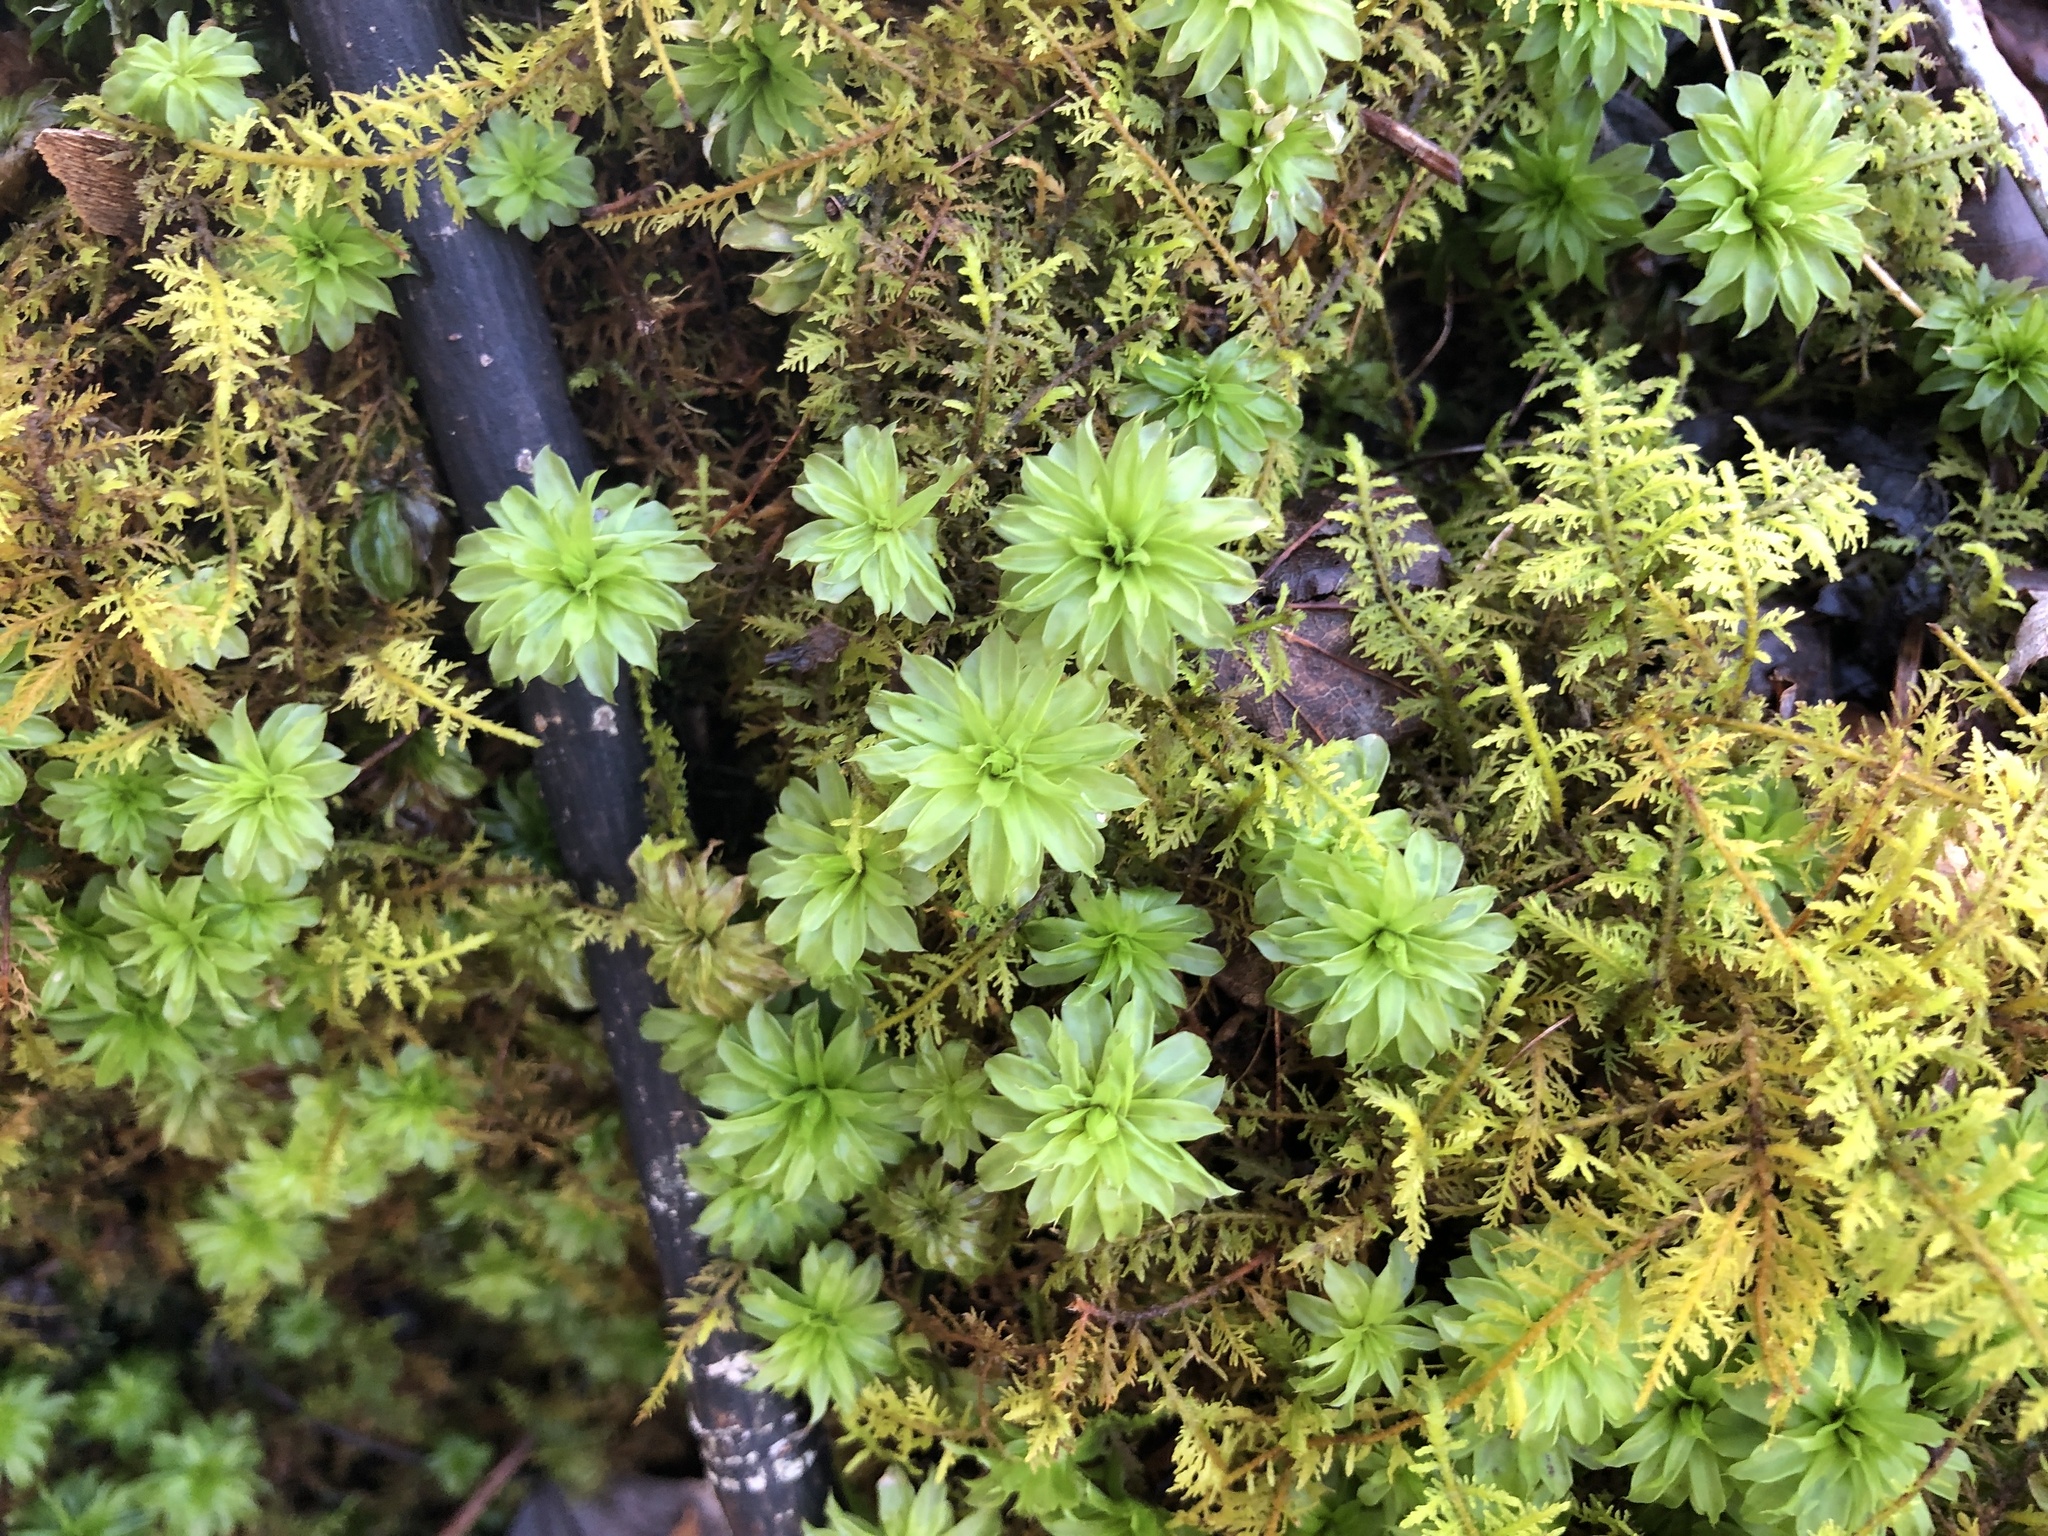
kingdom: Plantae
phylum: Bryophyta
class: Bryopsida
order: Bryales
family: Bryaceae
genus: Rhodobryum
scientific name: Rhodobryum ontariense
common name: Ontario rhodobryum moss
